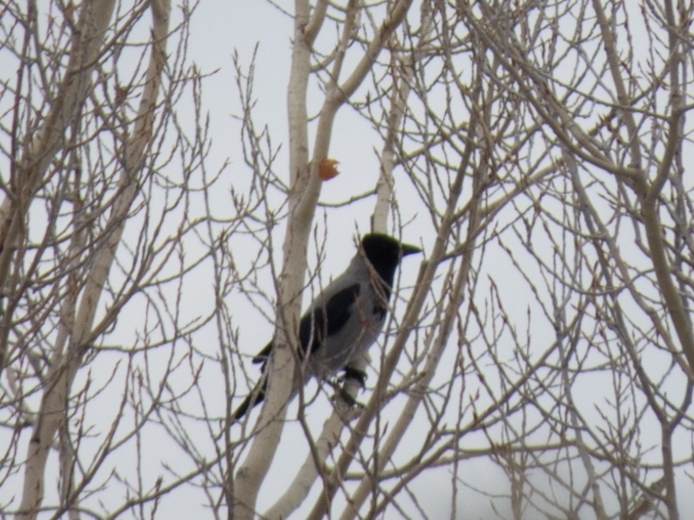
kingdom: Animalia
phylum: Chordata
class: Aves
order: Passeriformes
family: Corvidae
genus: Corvus
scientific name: Corvus cornix
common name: Hooded crow
